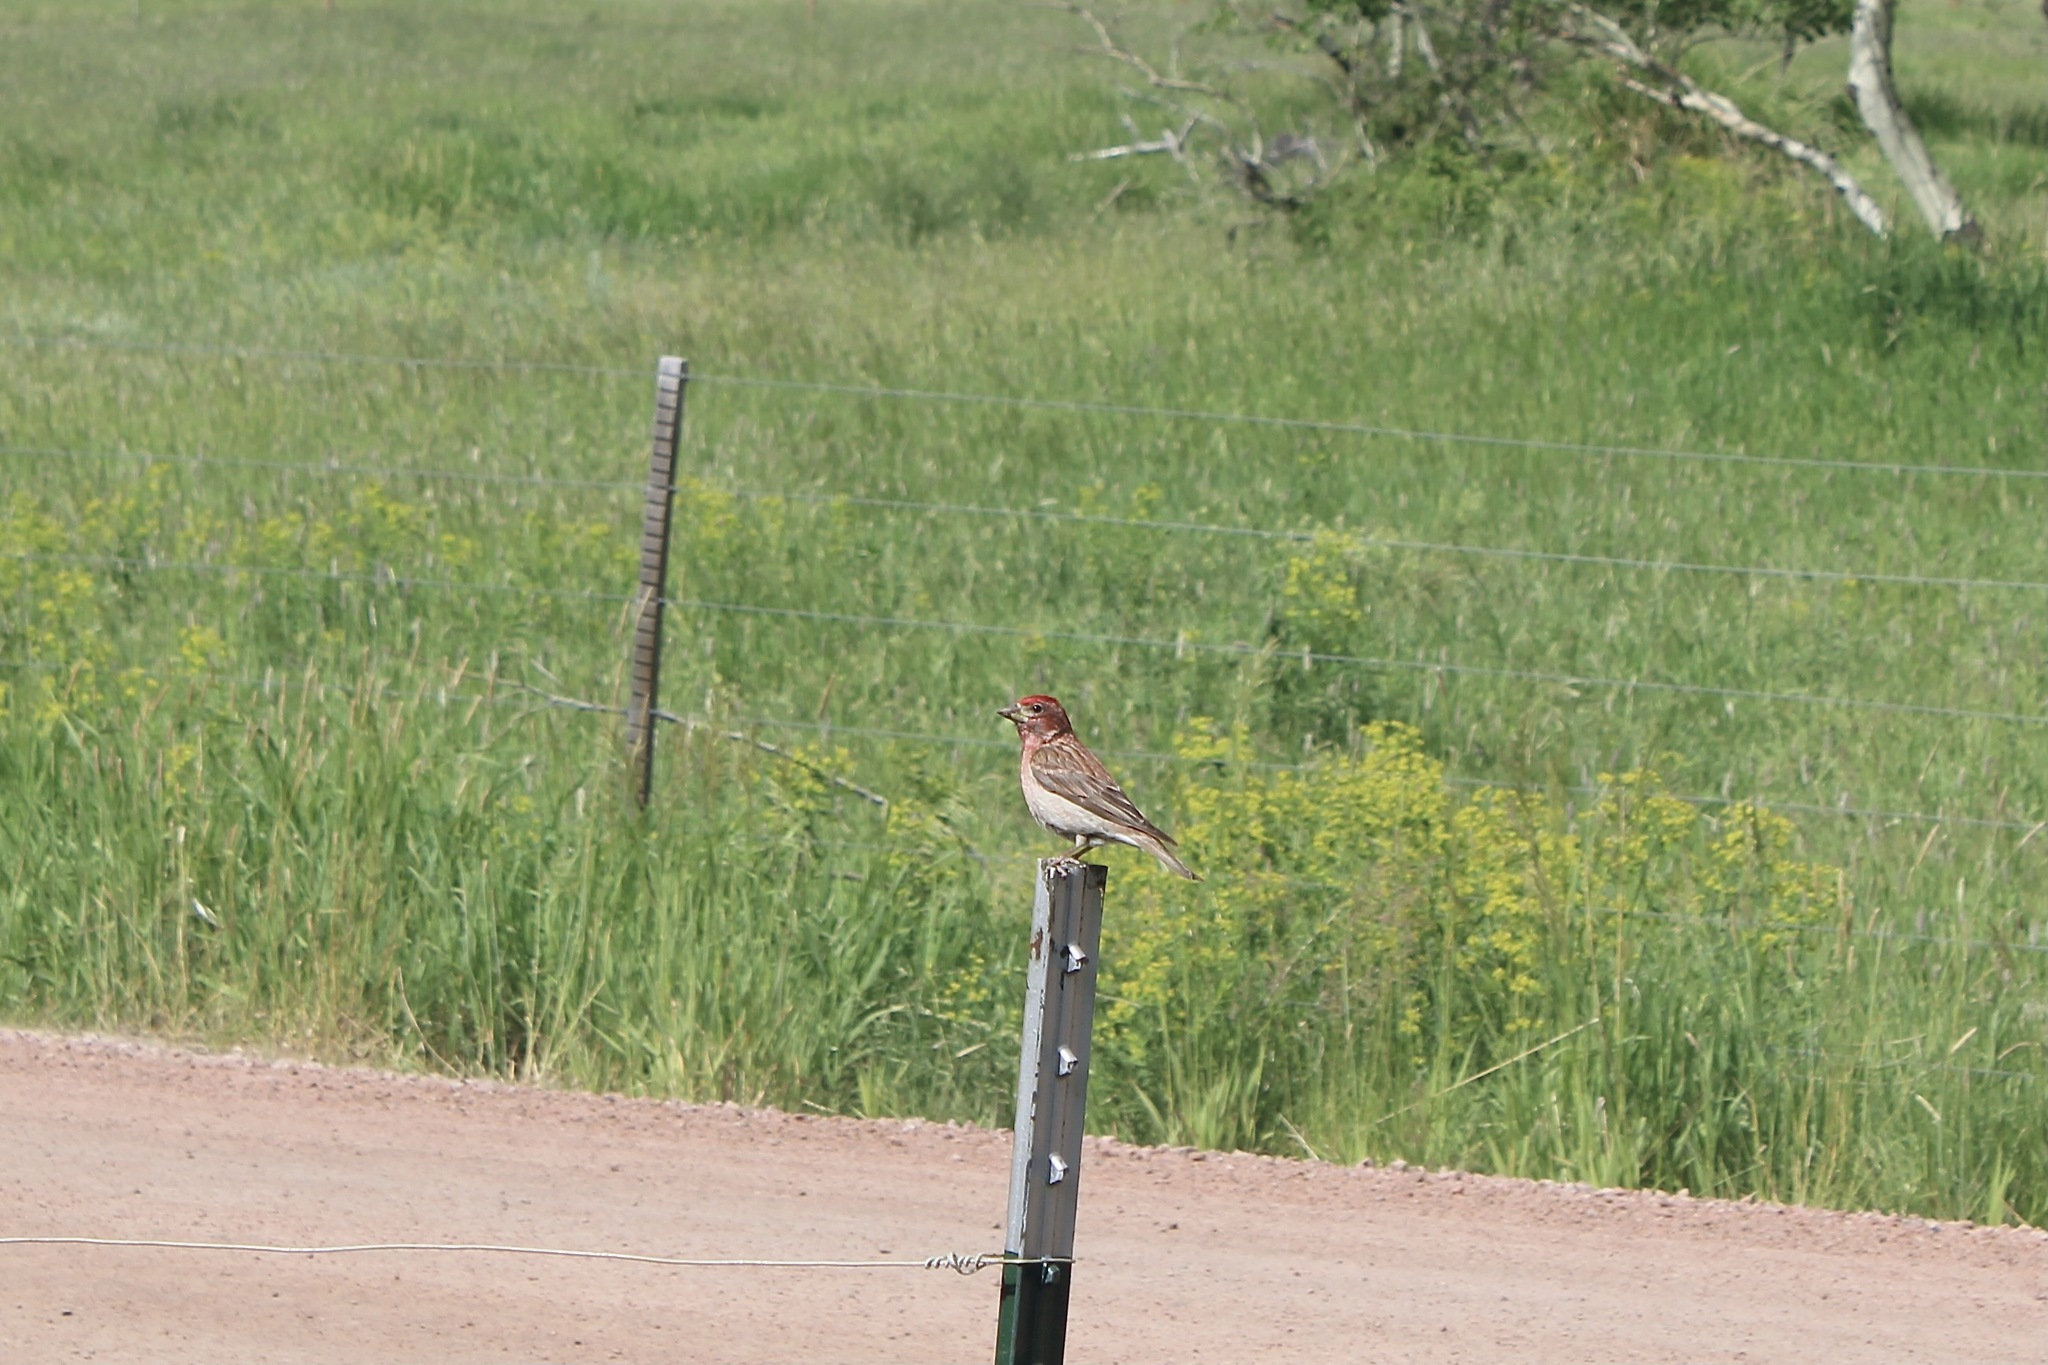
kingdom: Animalia
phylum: Chordata
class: Aves
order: Passeriformes
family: Fringillidae
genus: Haemorhous
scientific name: Haemorhous cassinii
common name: Cassin's finch
